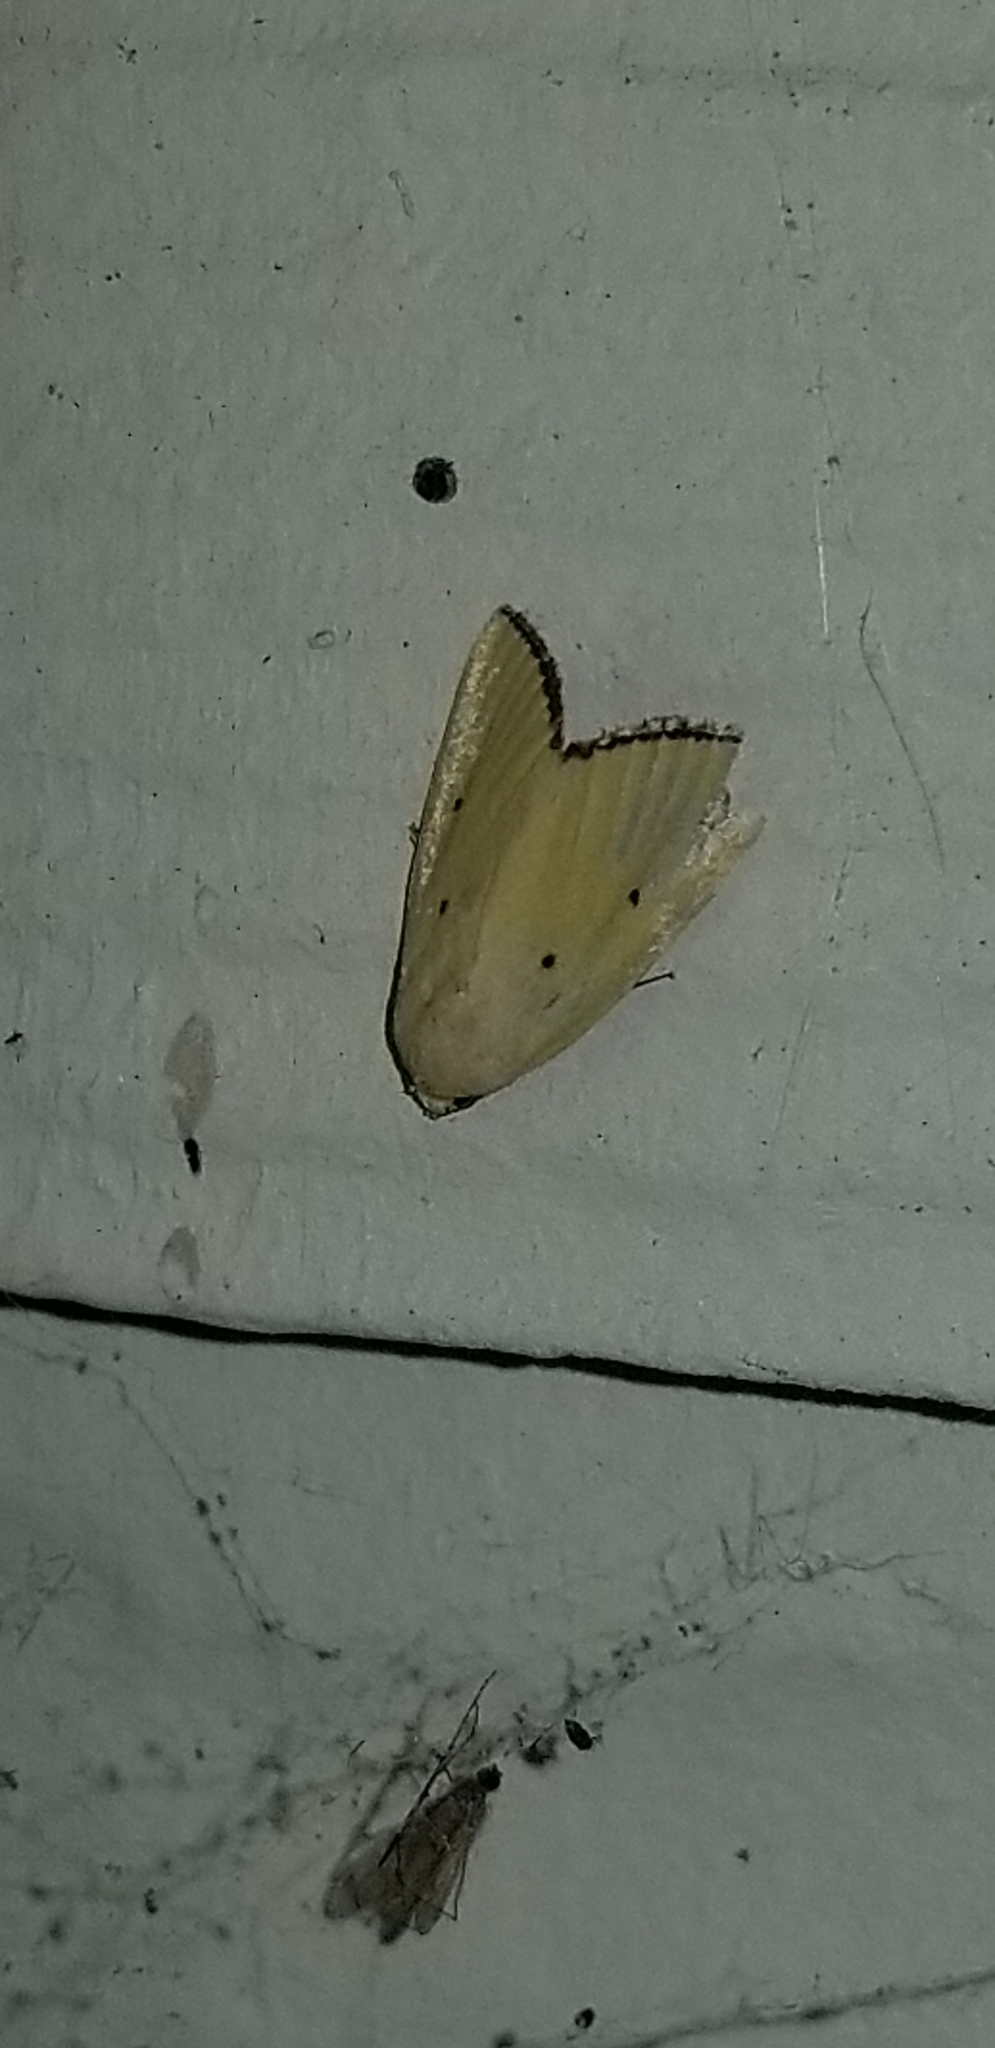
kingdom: Animalia
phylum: Arthropoda
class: Insecta
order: Lepidoptera
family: Noctuidae
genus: Marimatha
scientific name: Marimatha nigrofimbria
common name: Black-bordered lemon moth
